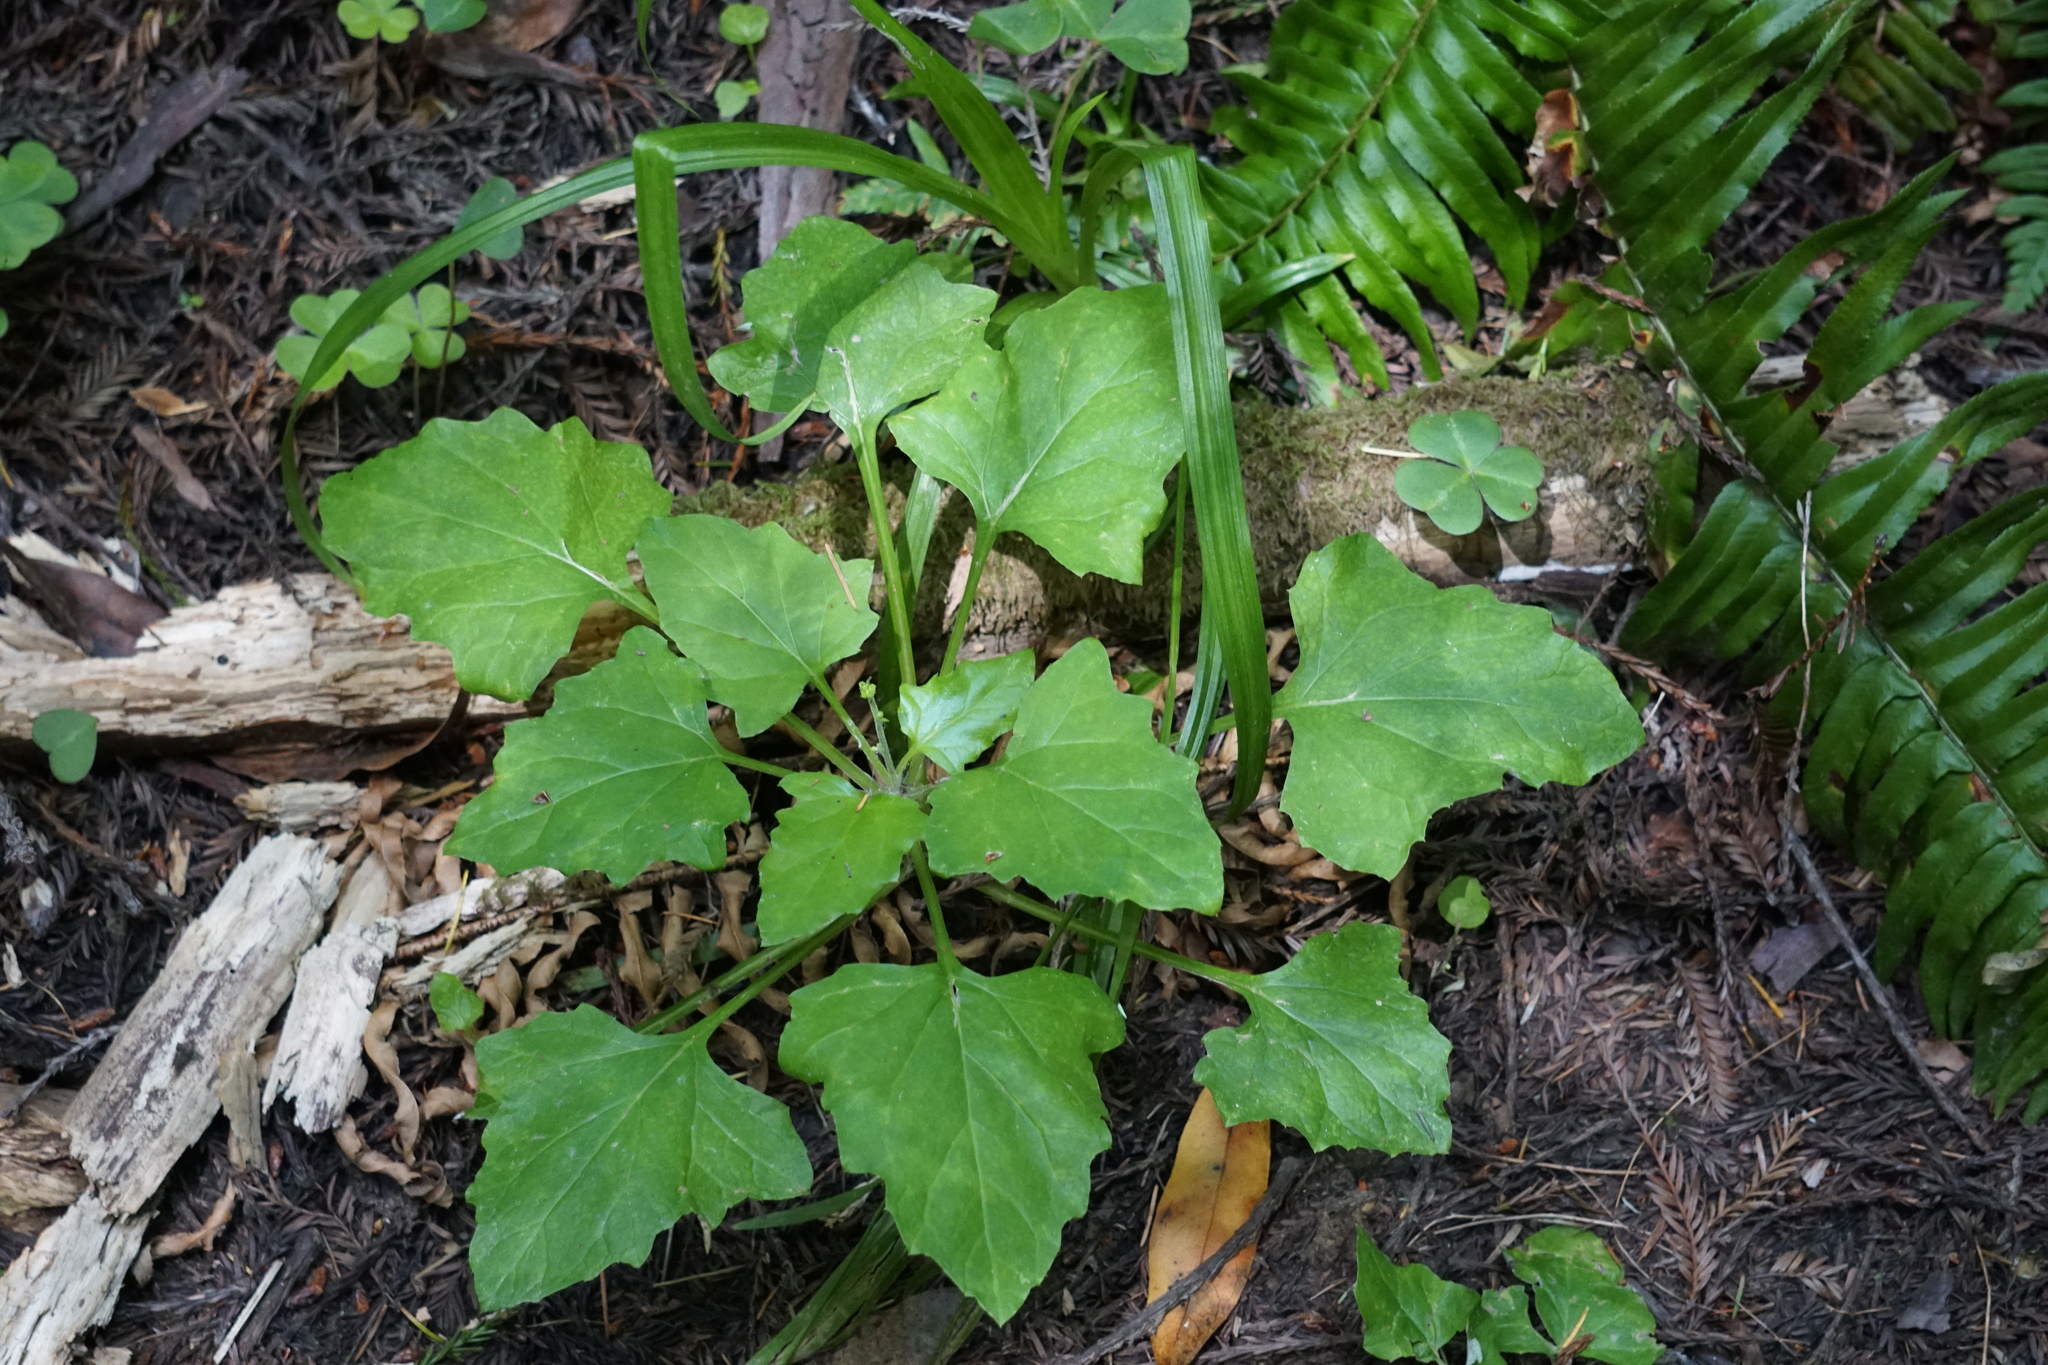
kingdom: Plantae
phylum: Tracheophyta
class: Magnoliopsida
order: Asterales
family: Asteraceae
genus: Adenocaulon
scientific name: Adenocaulon bicolor
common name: Trailplant
